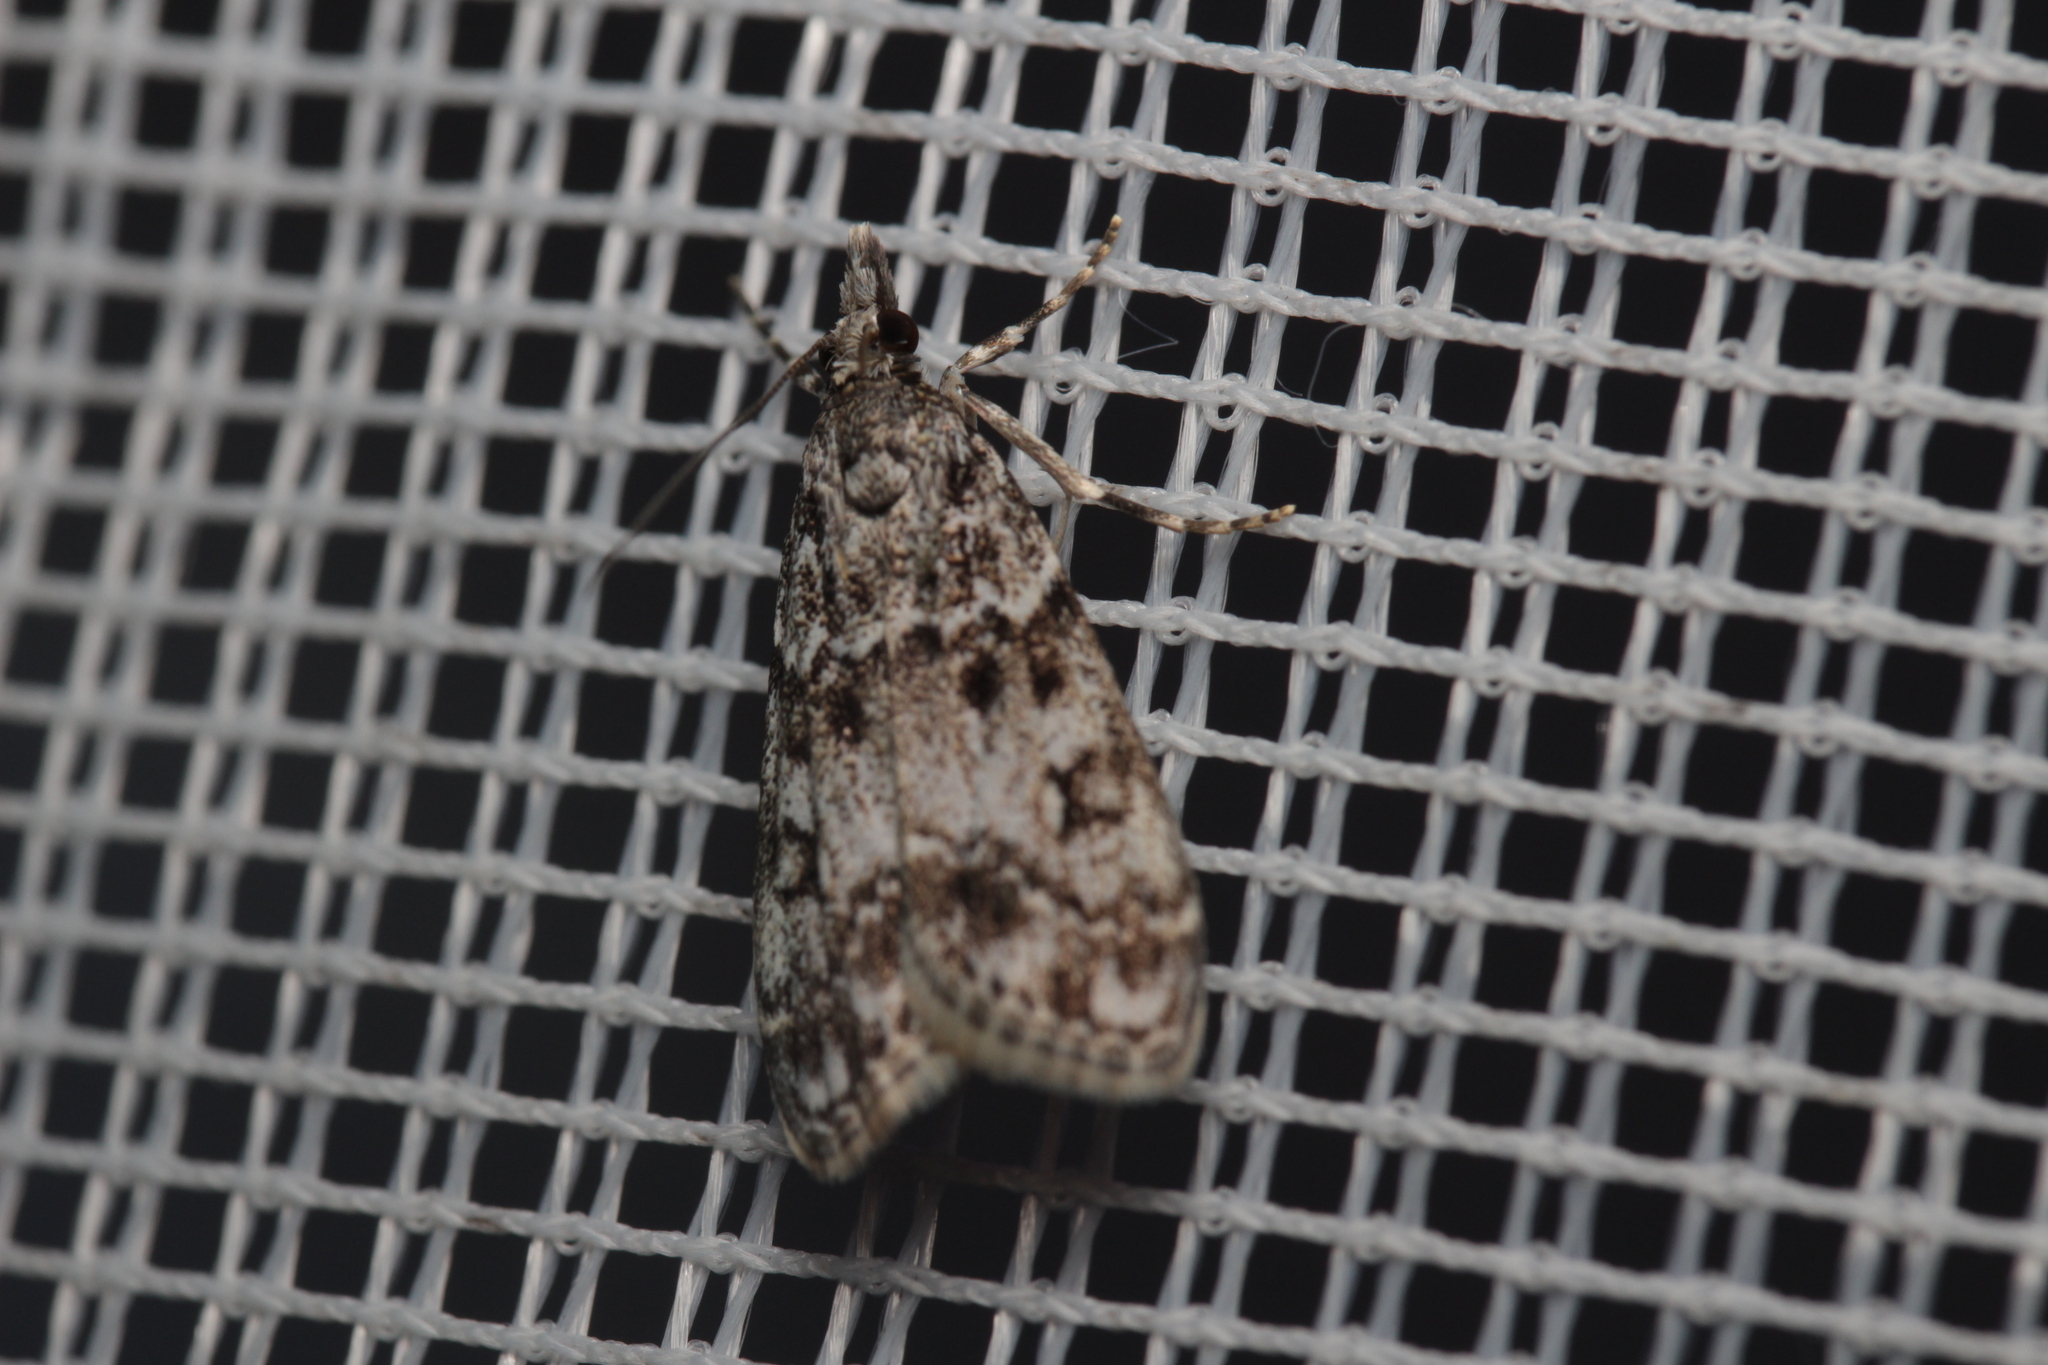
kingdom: Animalia
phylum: Arthropoda
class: Insecta
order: Lepidoptera
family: Crambidae
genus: Eudonia
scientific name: Eudonia lacustrata
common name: Little grey
